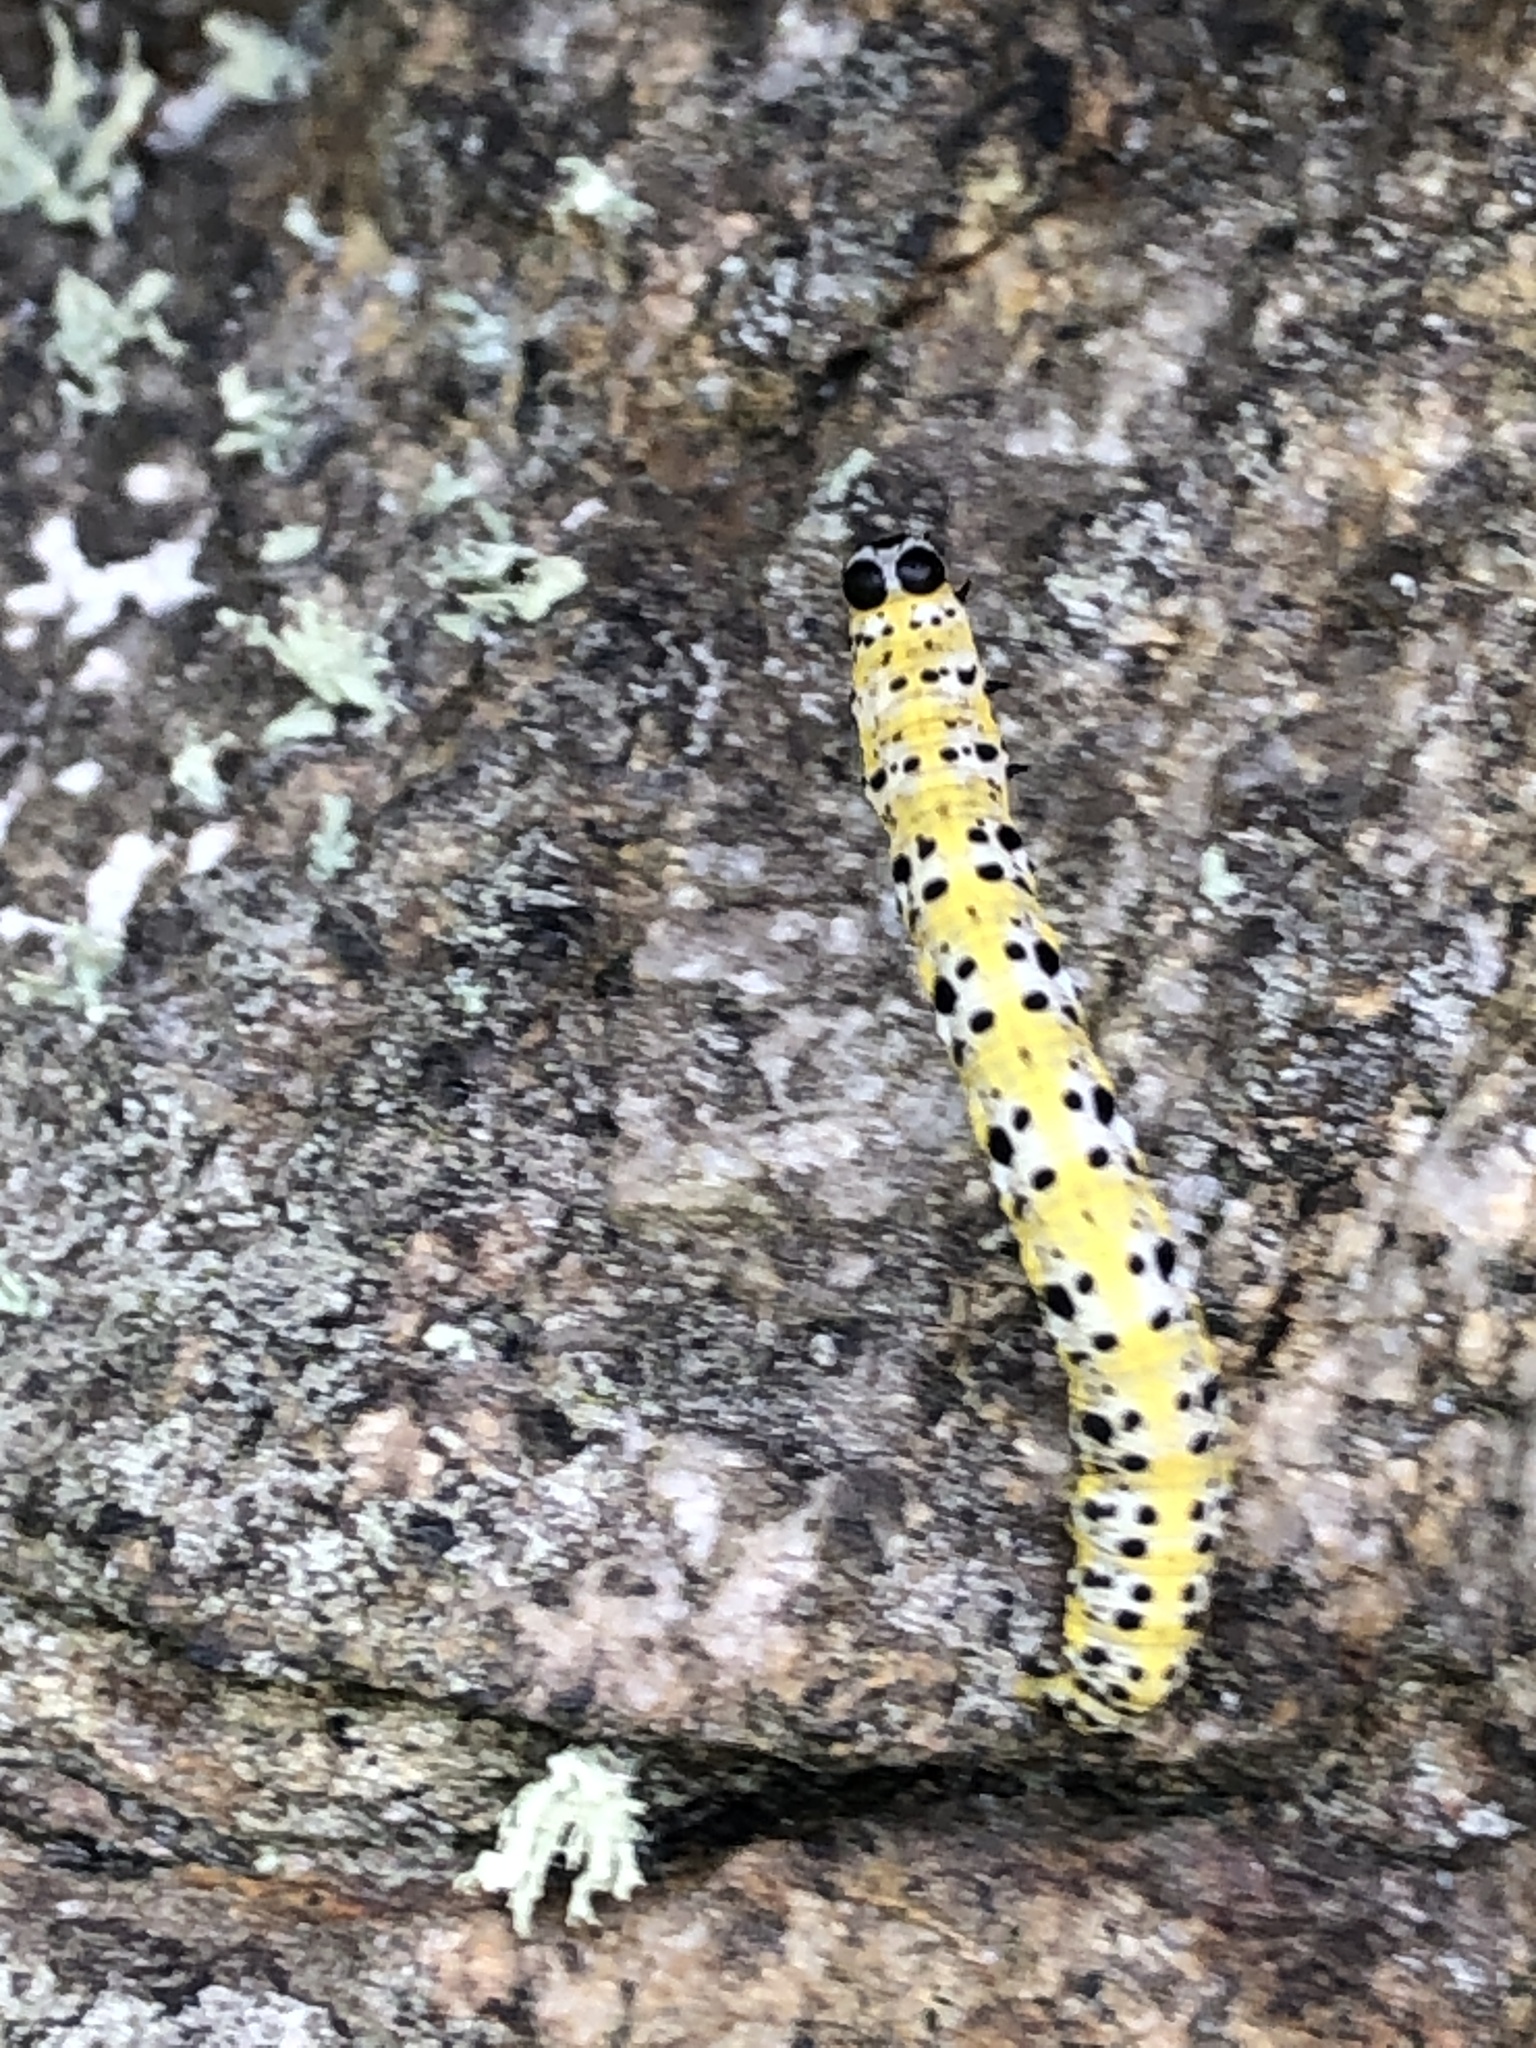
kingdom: Animalia
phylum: Arthropoda
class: Insecta
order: Lepidoptera
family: Geometridae
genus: Macaria
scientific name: Macaria ribearia
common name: Currant spanworm moth
